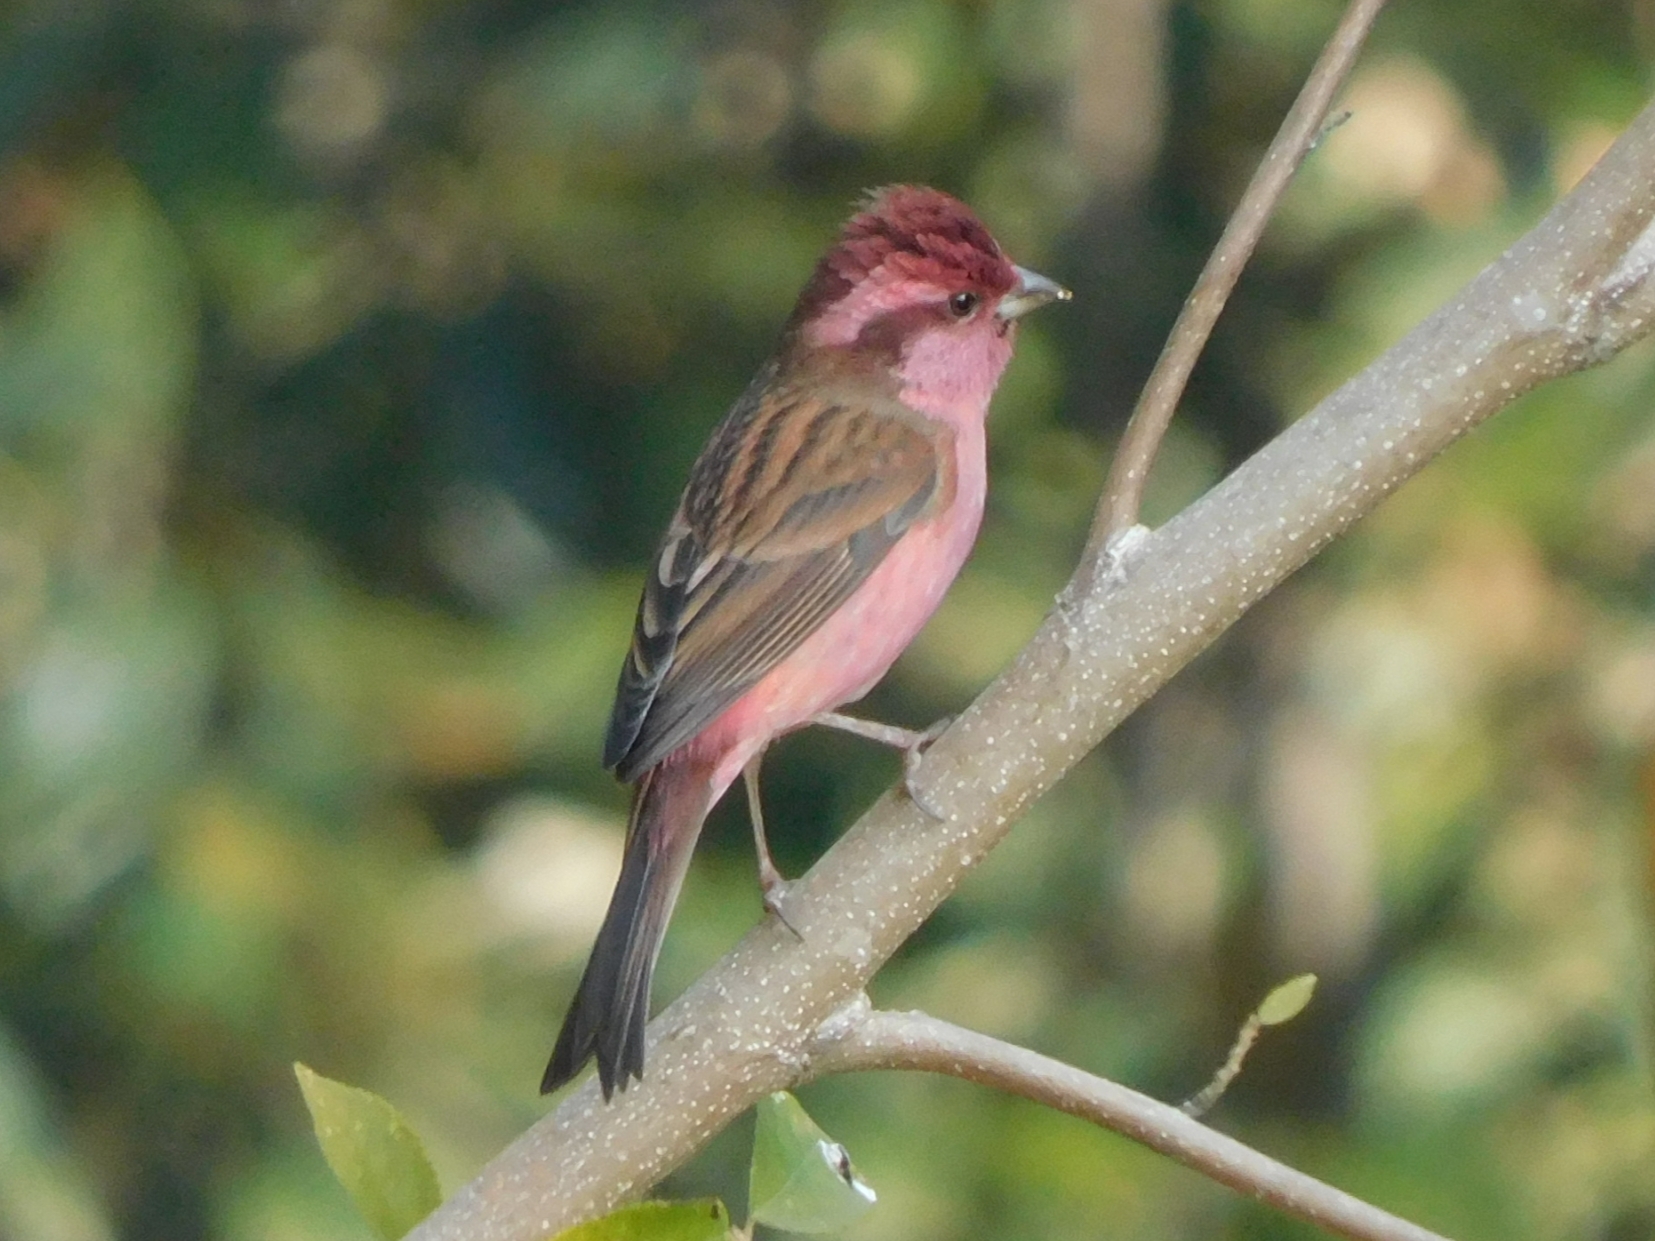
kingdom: Animalia
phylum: Chordata
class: Aves
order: Passeriformes
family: Fringillidae
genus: Carpodacus
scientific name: Carpodacus rodochroa
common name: Pink-browed rosefinch
